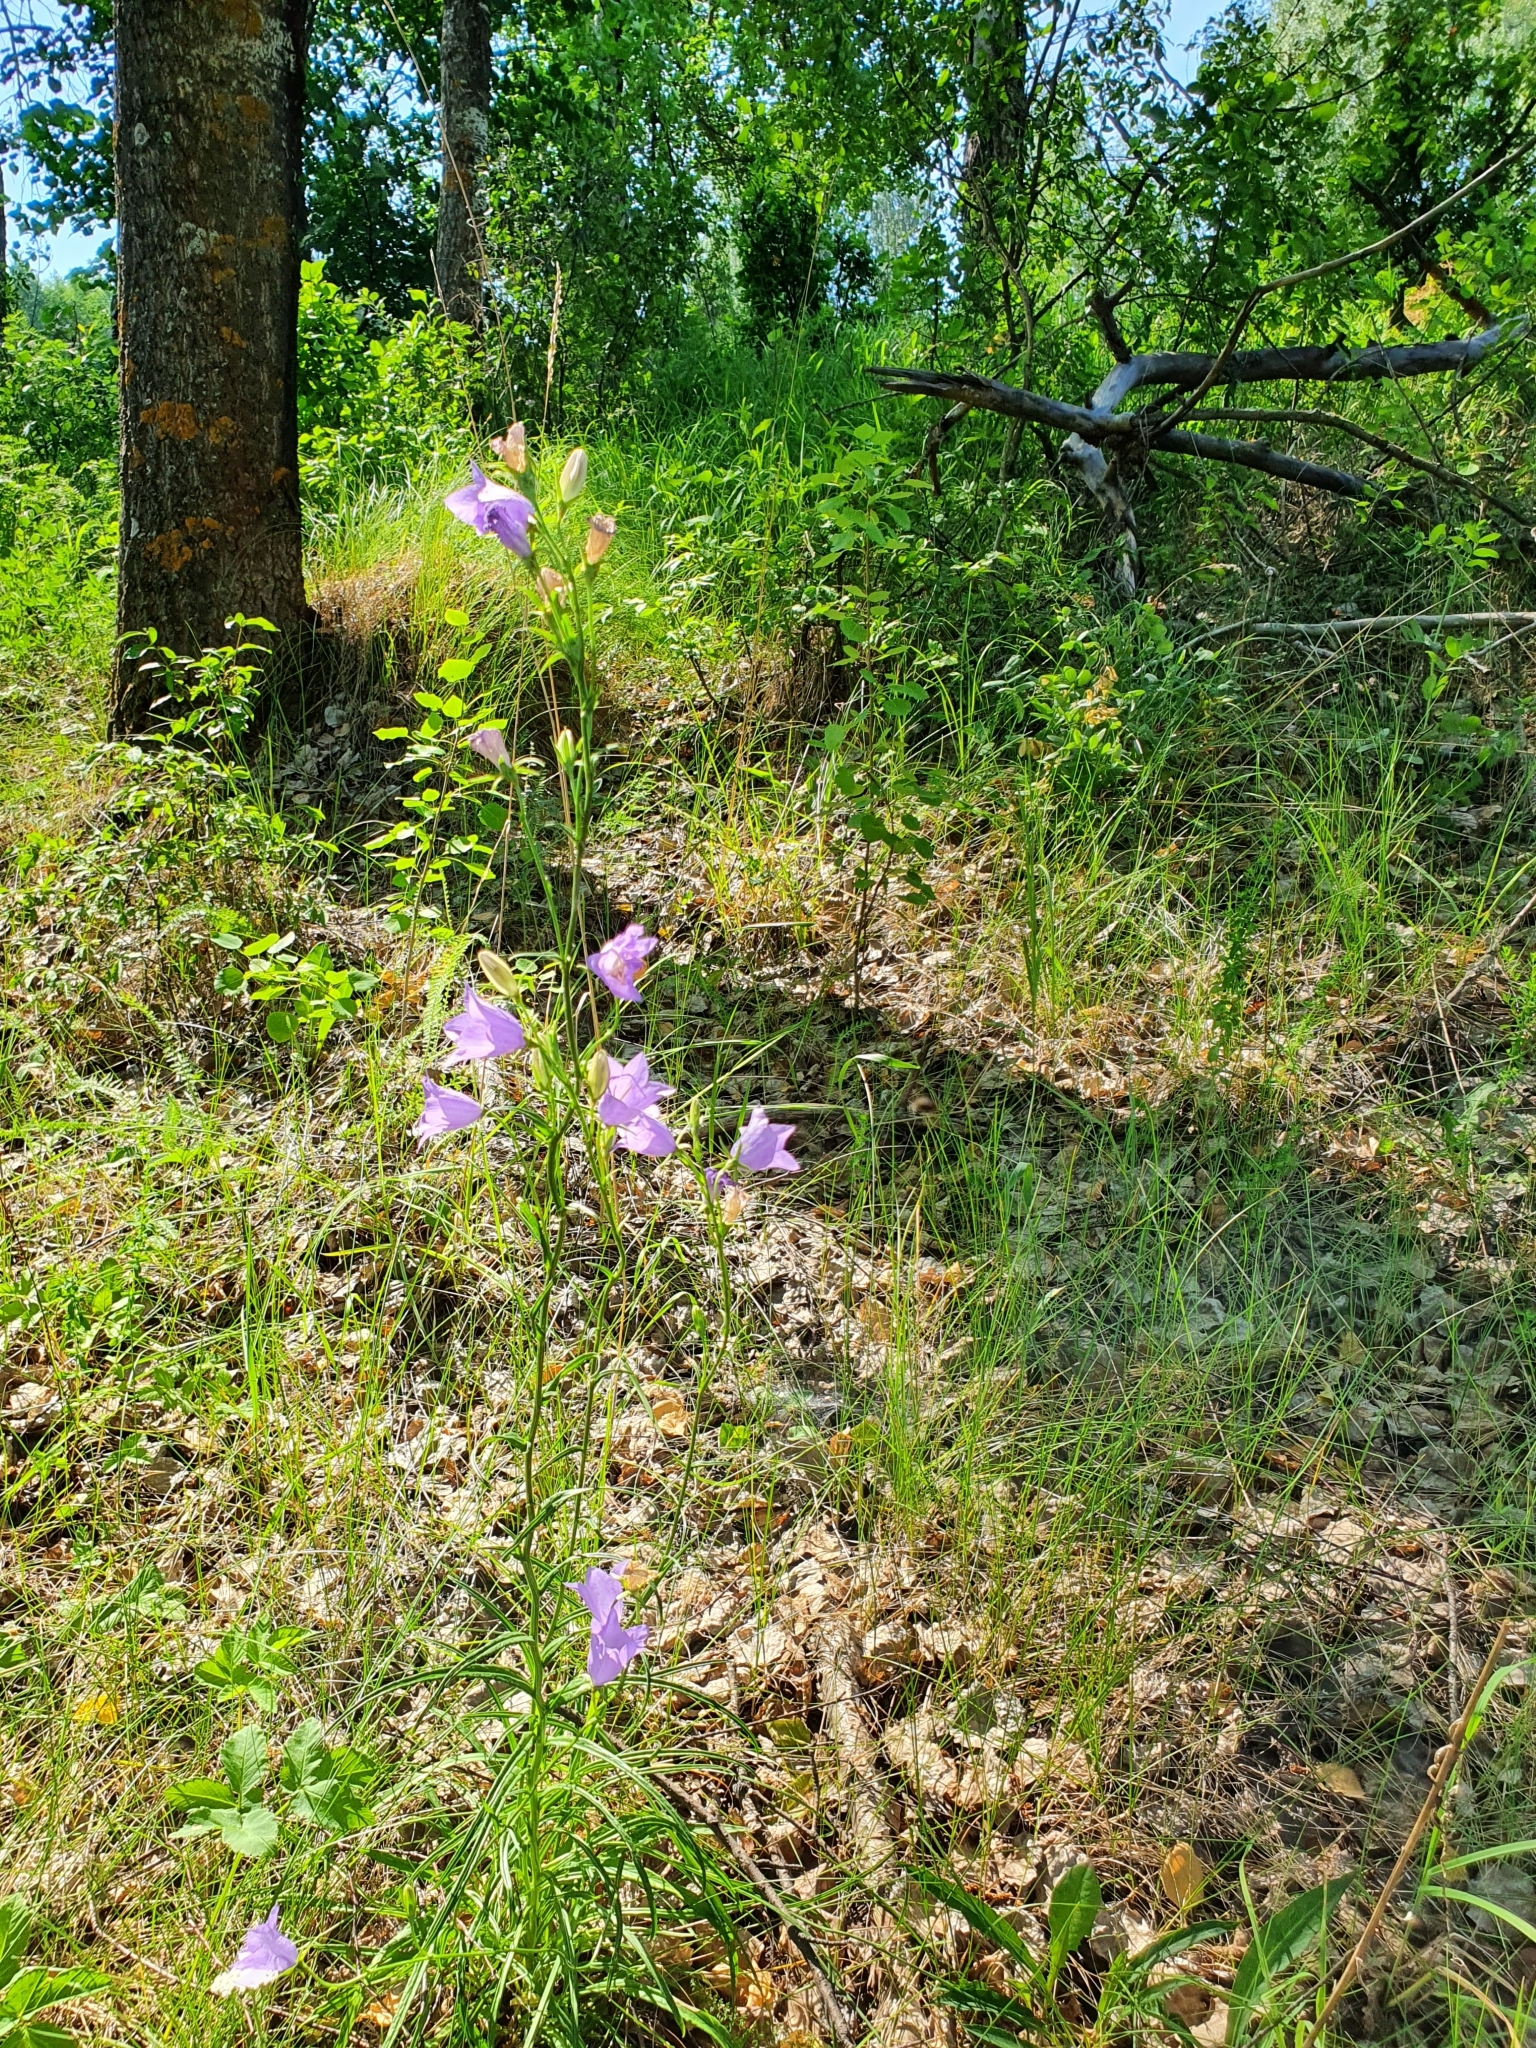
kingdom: Plantae
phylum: Tracheophyta
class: Magnoliopsida
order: Asterales
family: Campanulaceae
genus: Campanula
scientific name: Campanula persicifolia
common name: Peach-leaved bellflower
